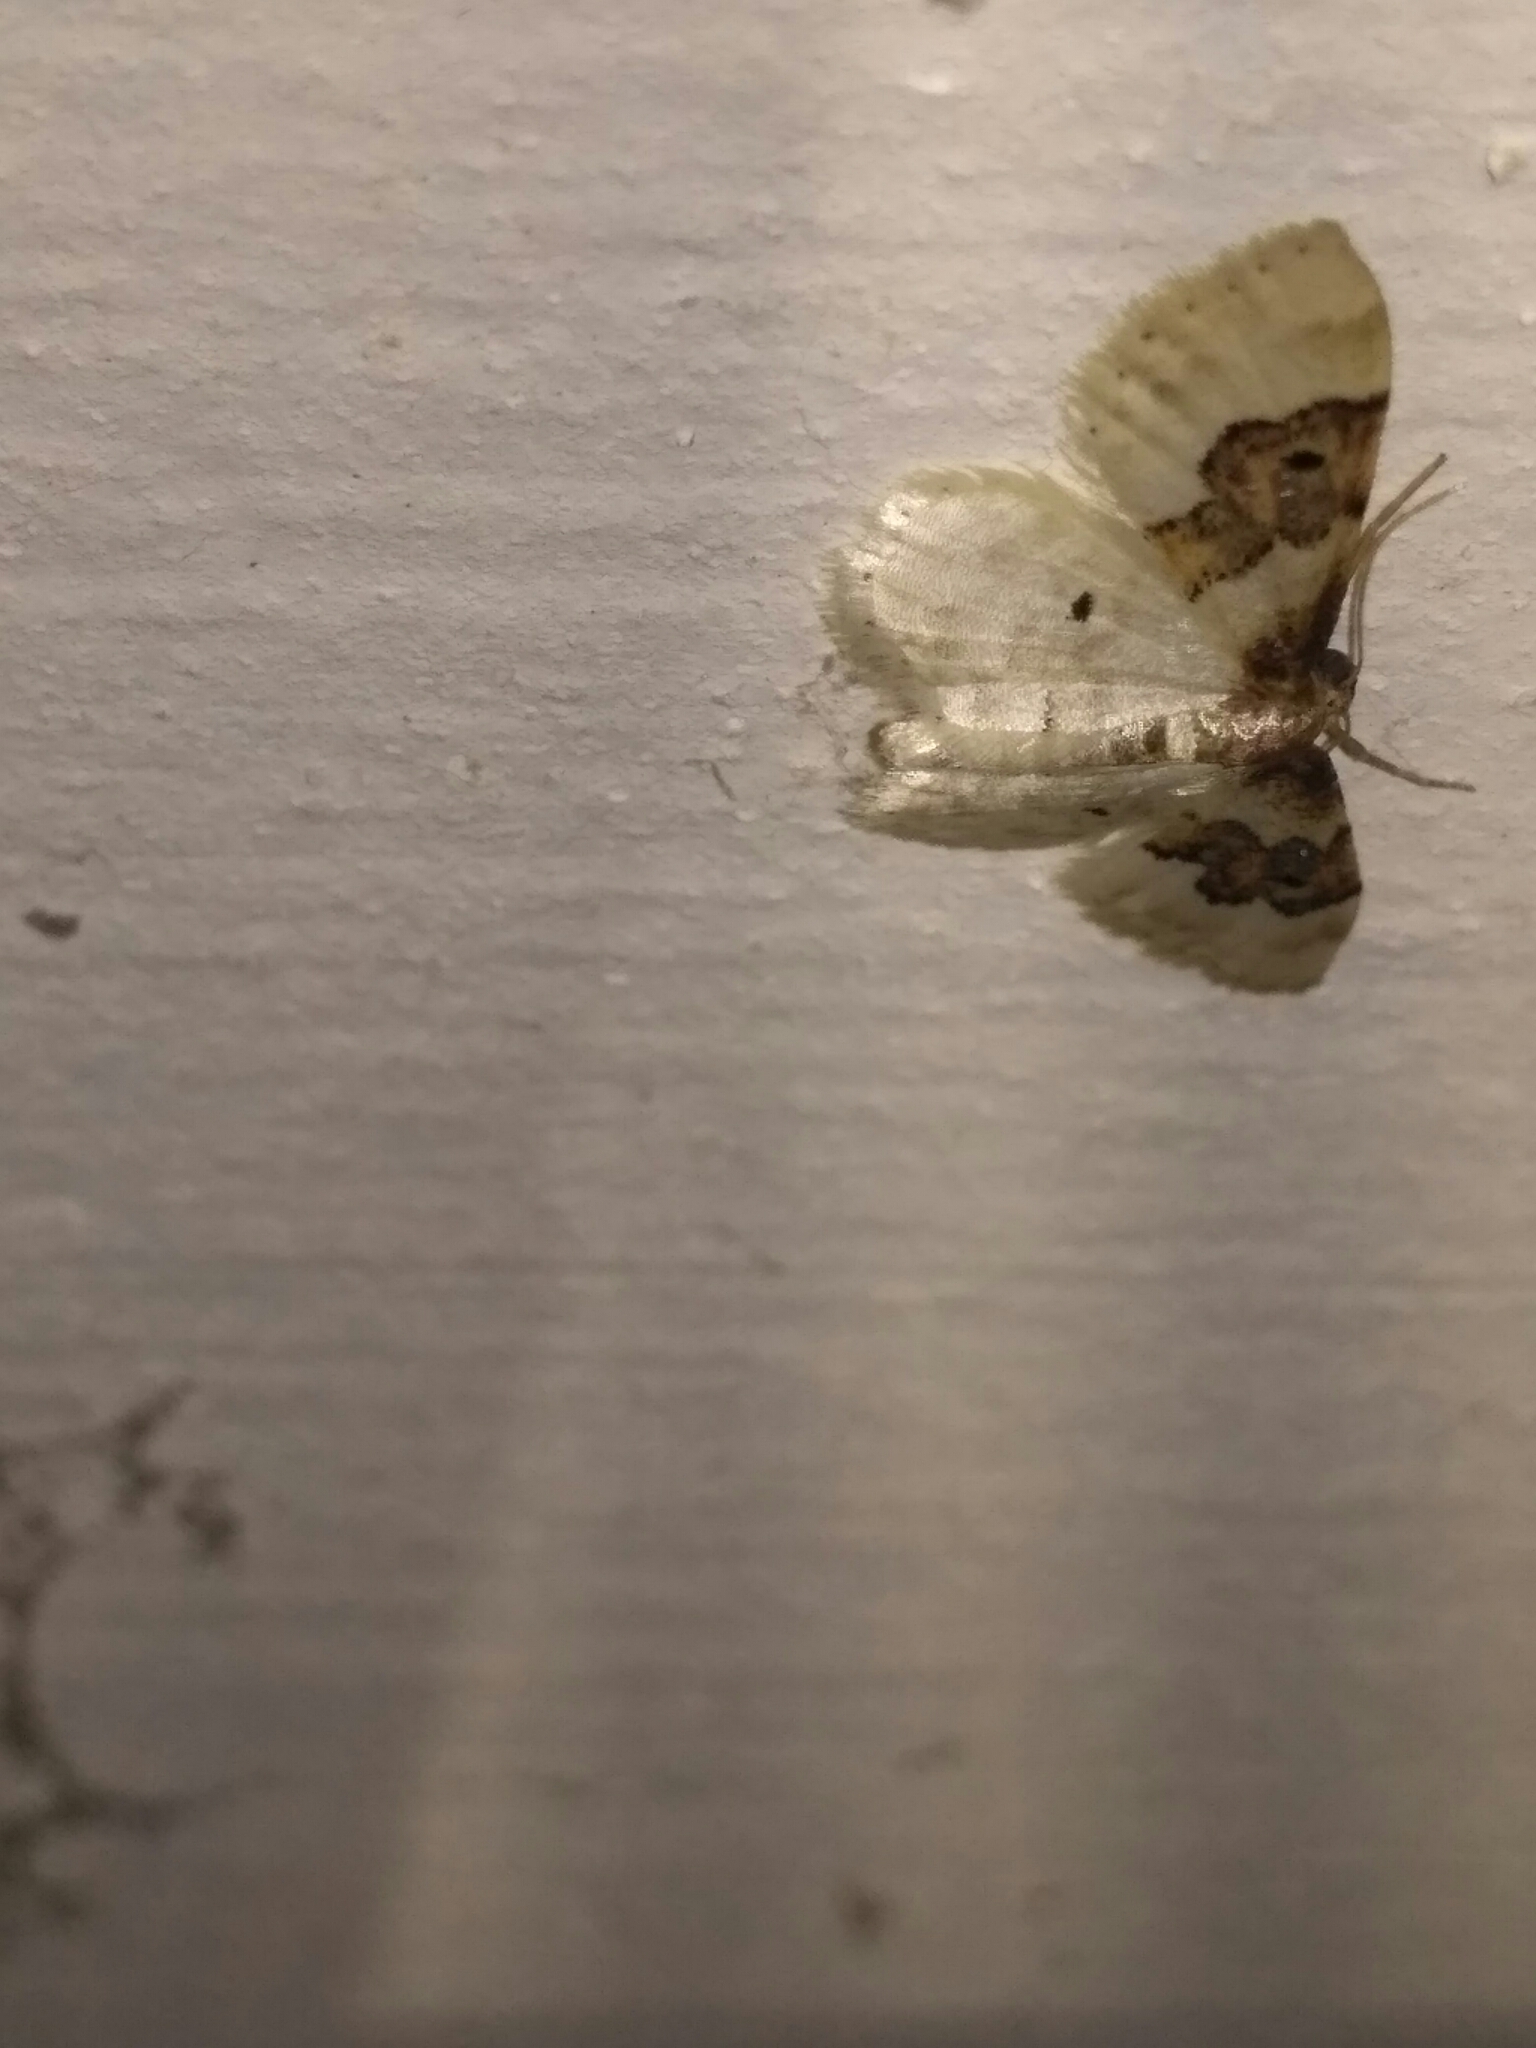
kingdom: Animalia
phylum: Arthropoda
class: Insecta
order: Lepidoptera
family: Geometridae
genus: Idaea
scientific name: Idaea rusticata
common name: Least carpet
